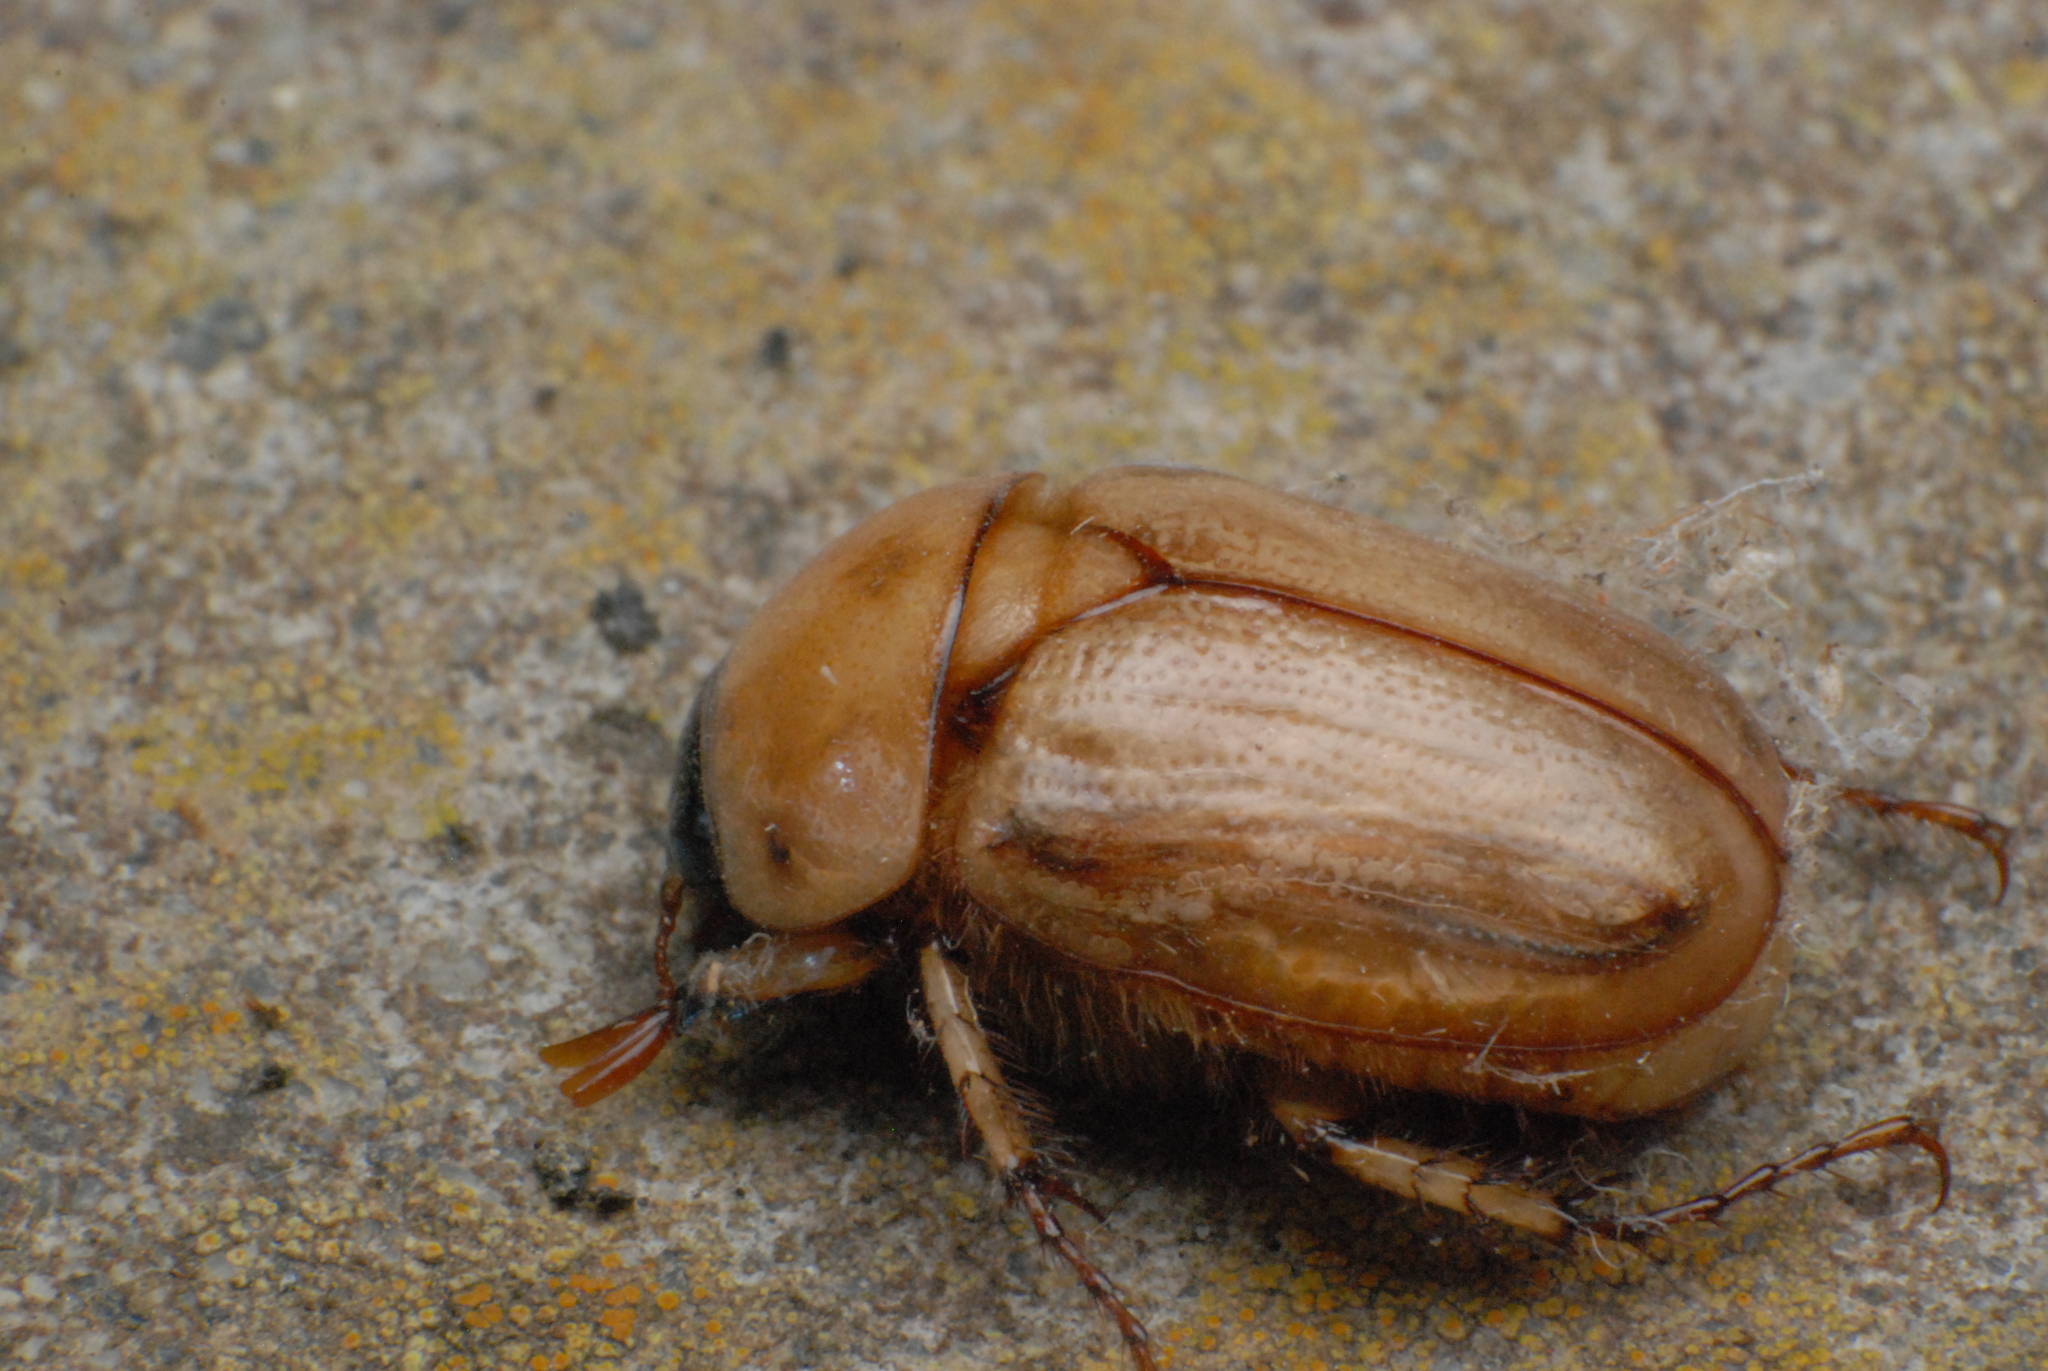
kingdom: Animalia
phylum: Arthropoda
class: Insecta
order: Coleoptera
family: Scarabaeidae
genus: Cyclocephala
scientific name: Cyclocephala signaticollis
